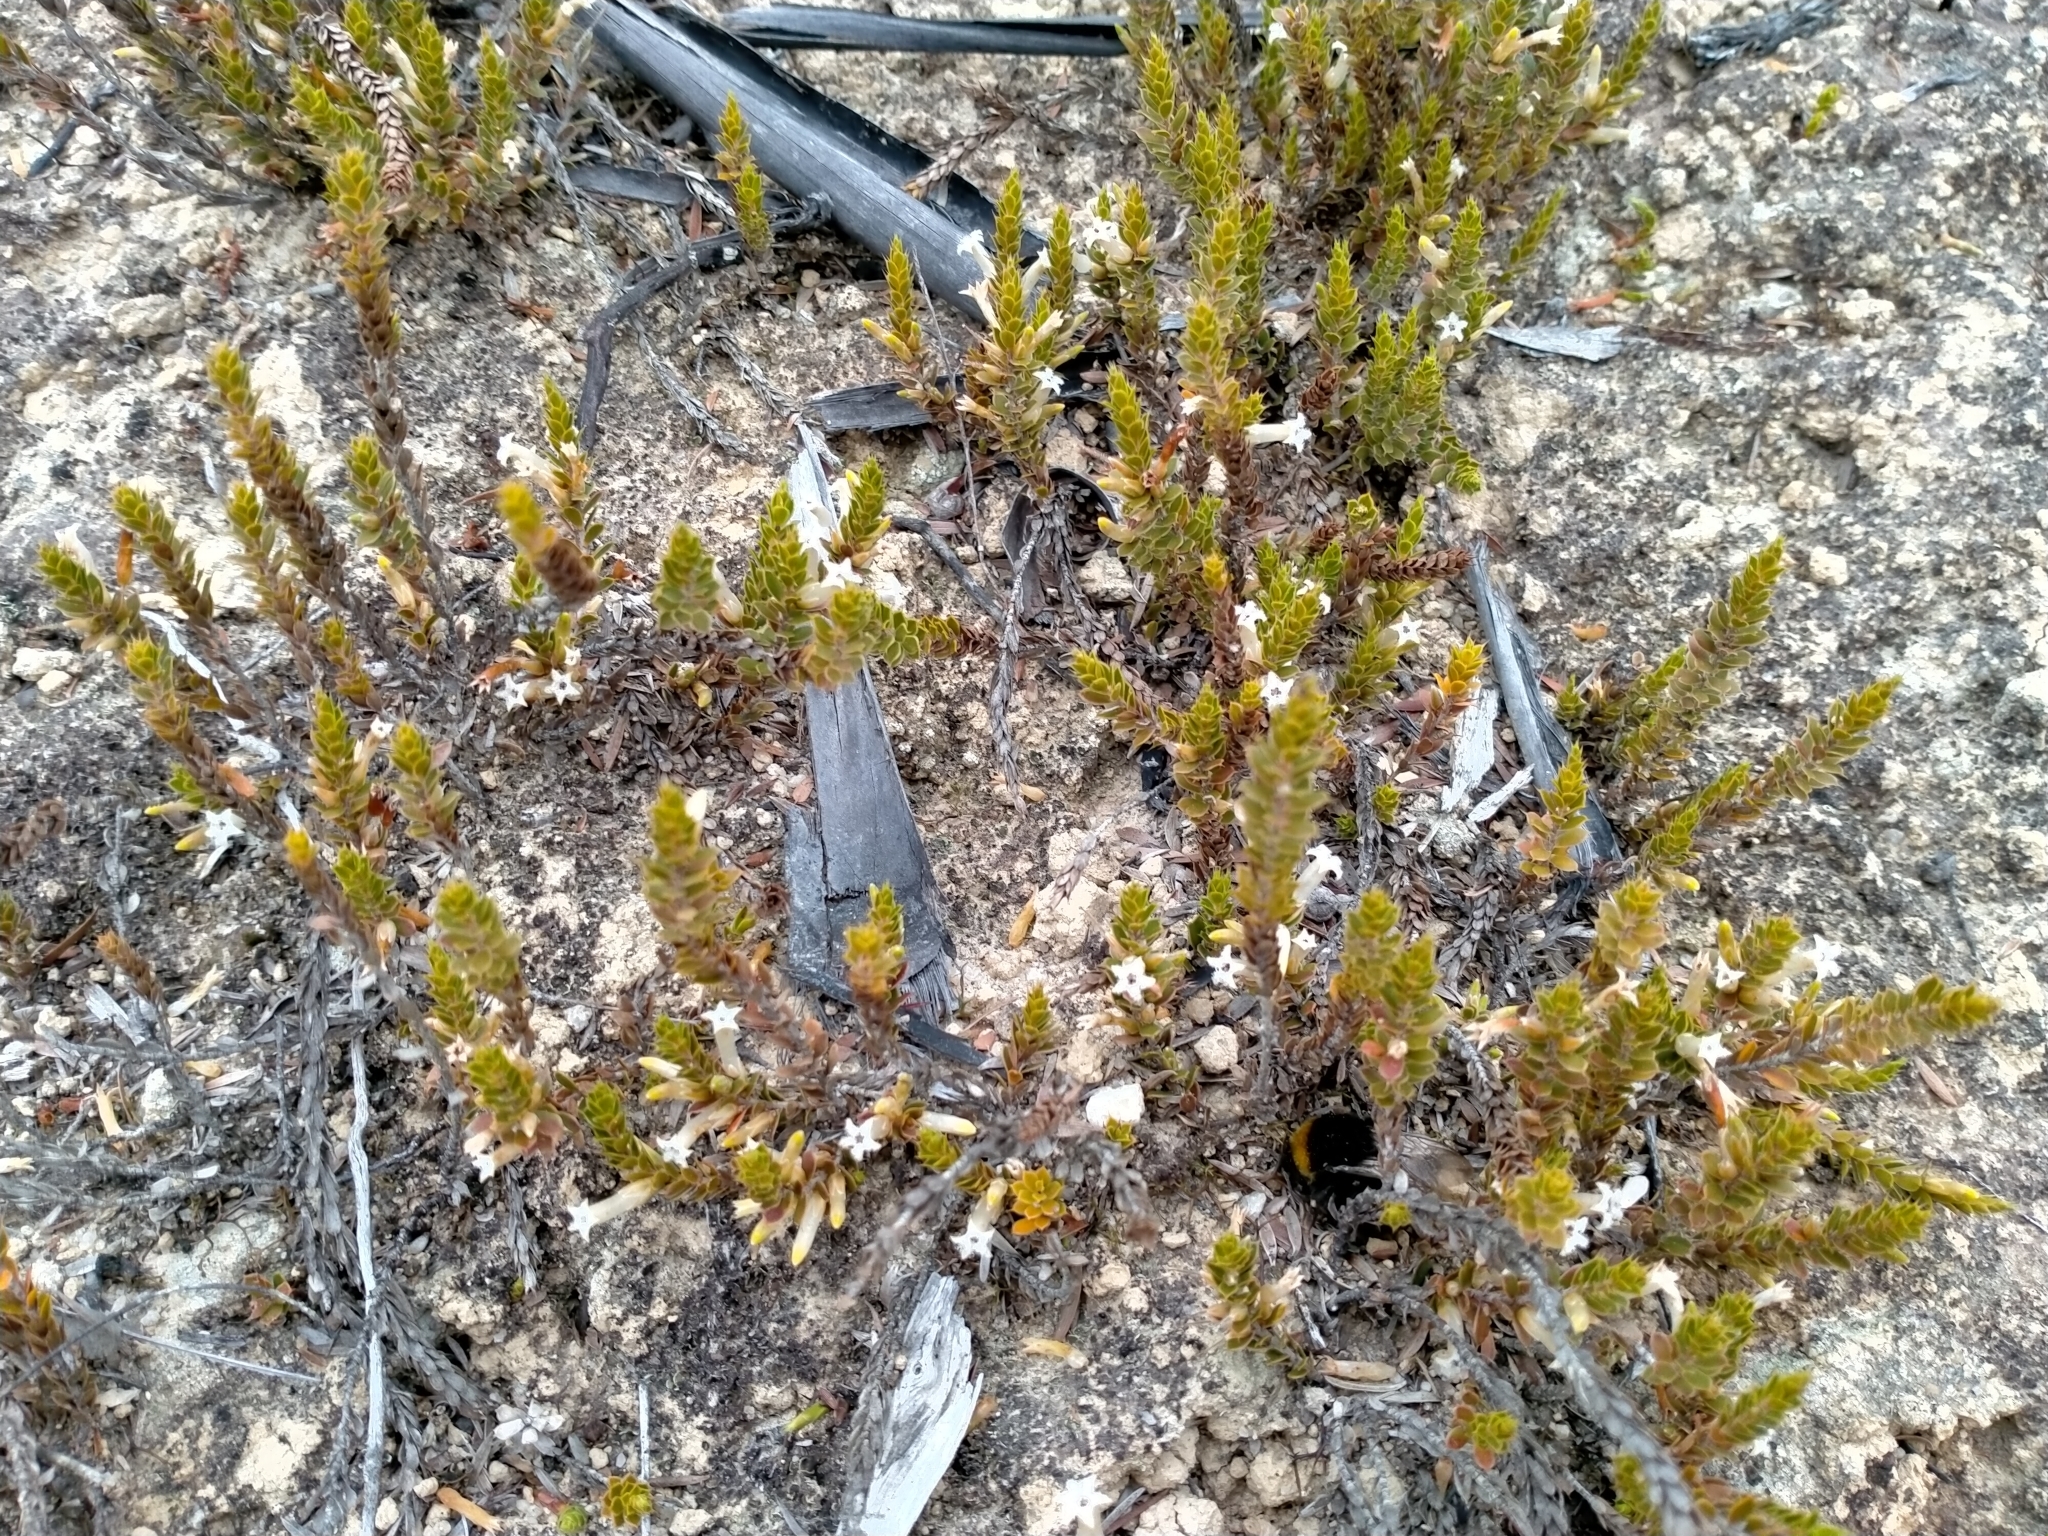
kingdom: Plantae
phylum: Tracheophyta
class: Magnoliopsida
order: Ericales
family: Ericaceae
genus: Styphelia
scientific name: Styphelia nesophila
